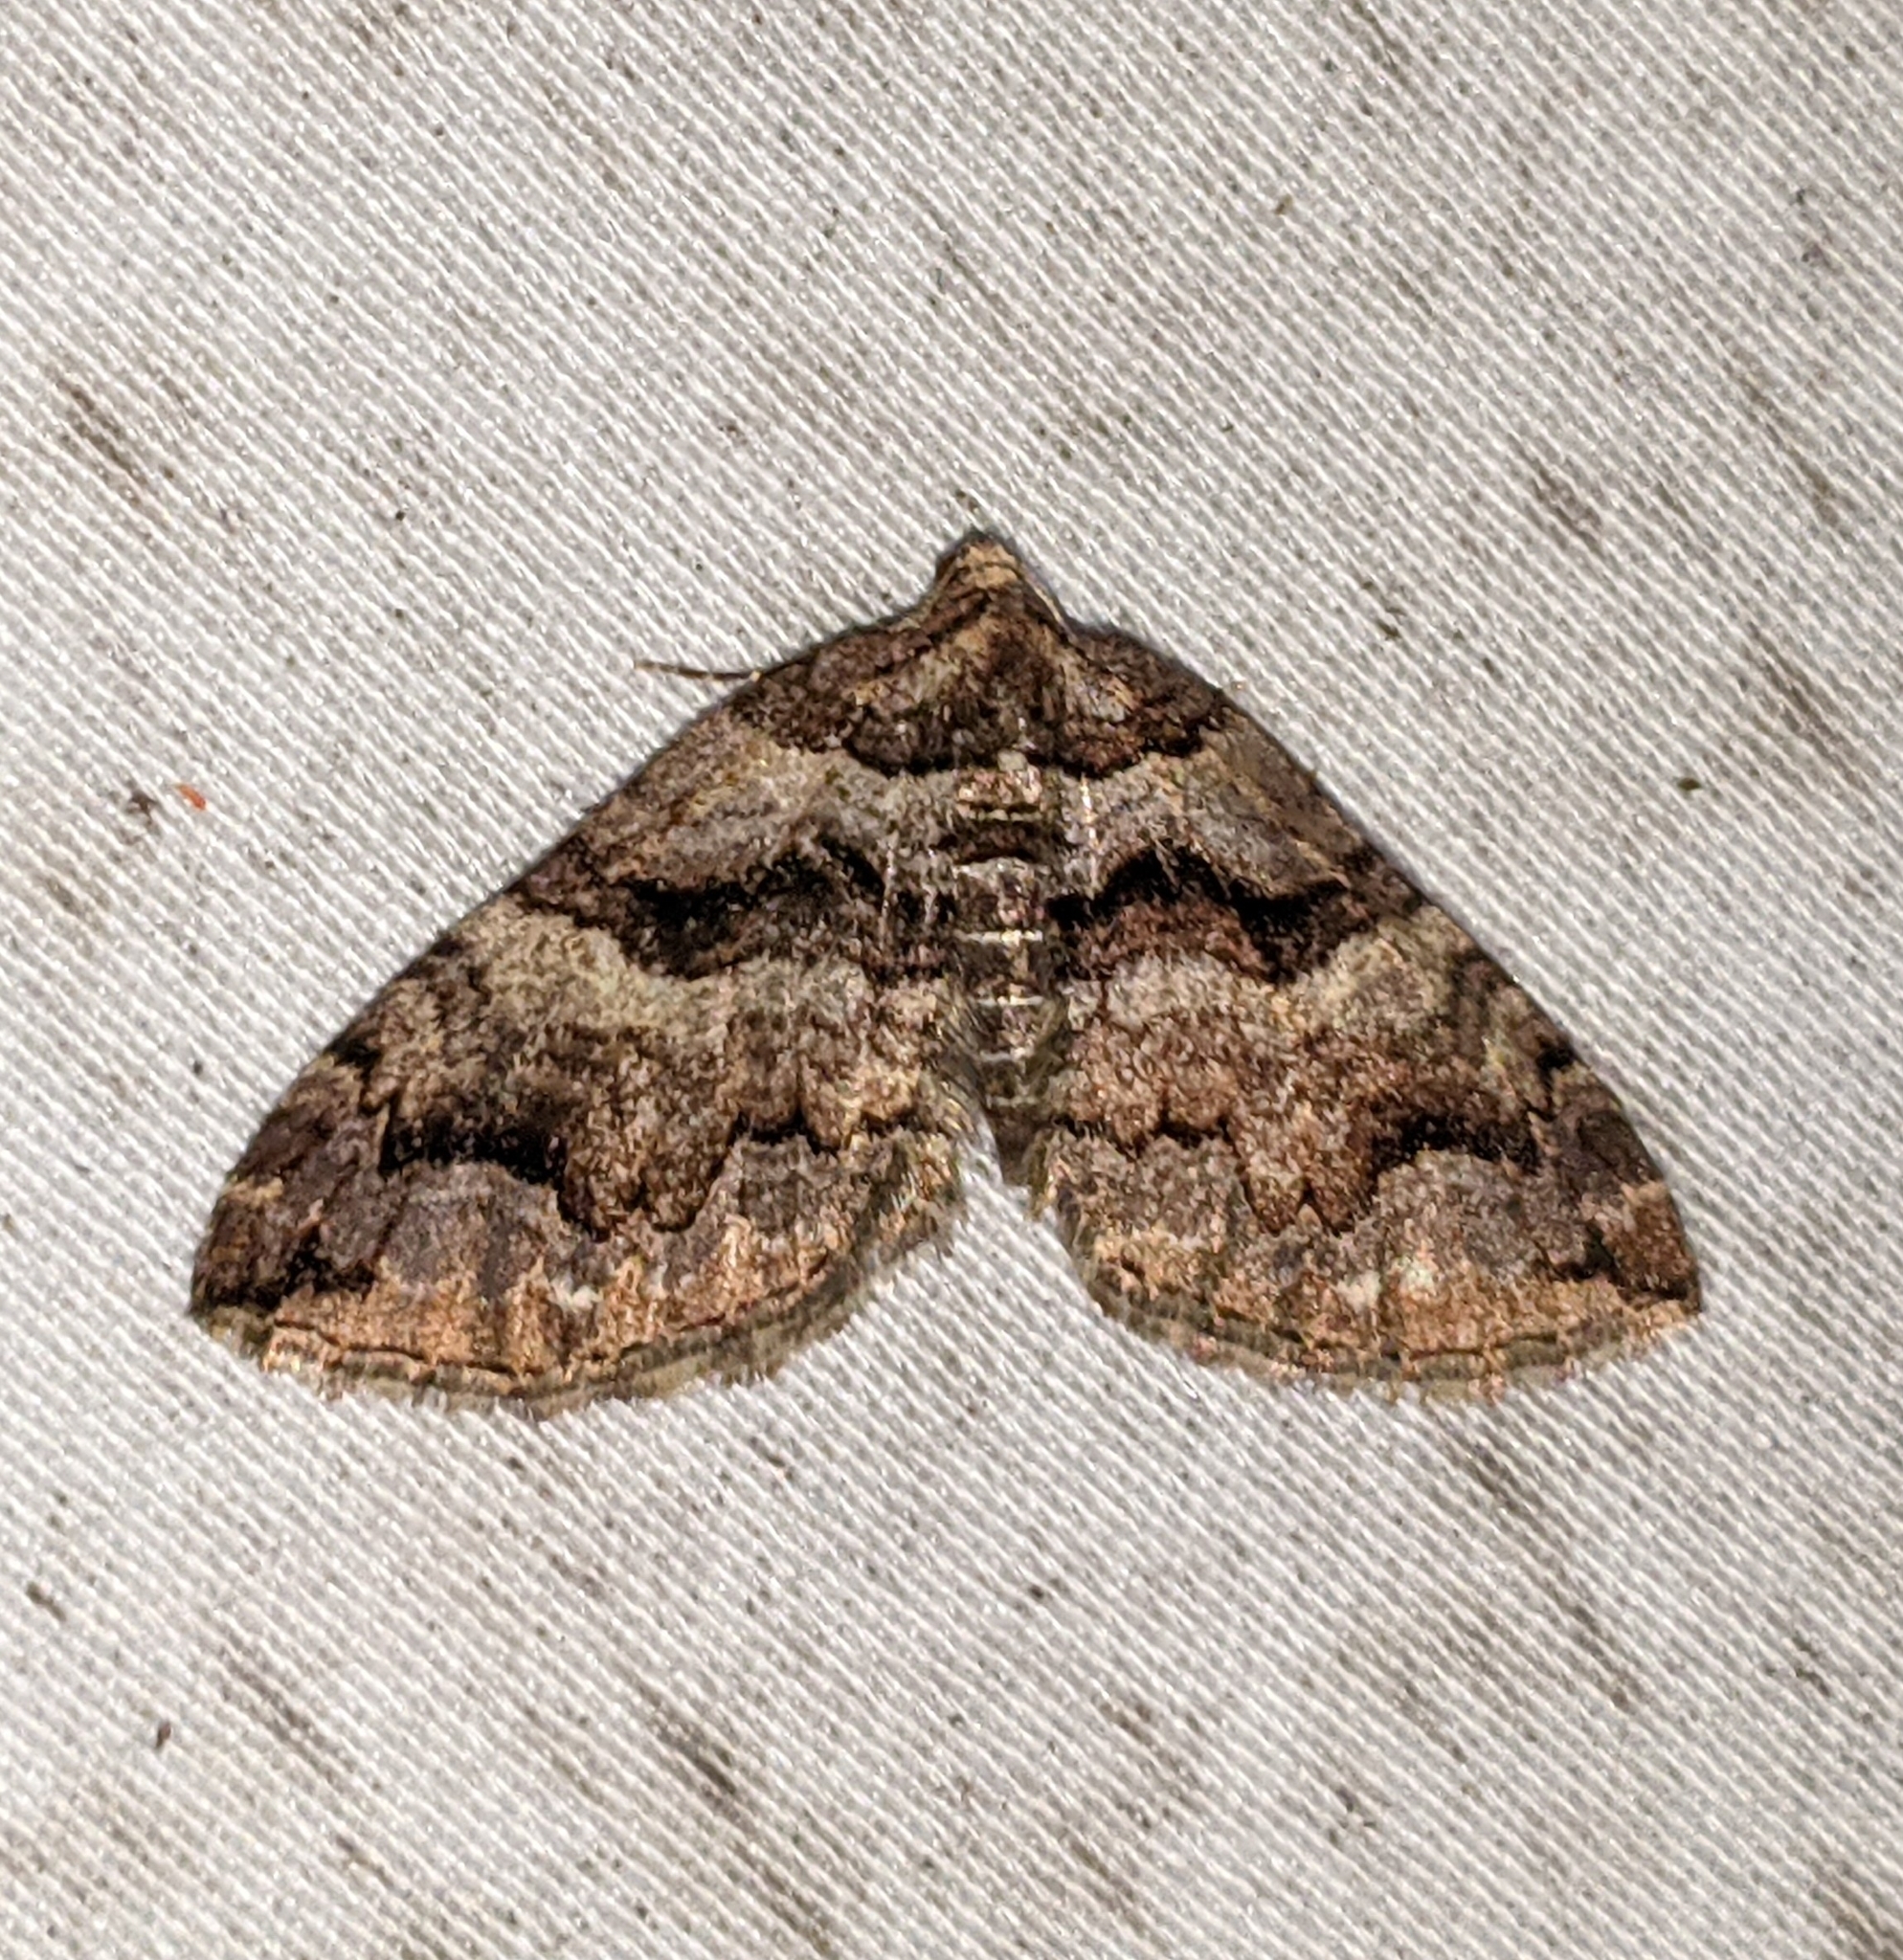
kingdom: Animalia
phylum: Arthropoda
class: Insecta
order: Lepidoptera
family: Geometridae
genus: Anticlea
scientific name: Anticlea vasiliata
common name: Variable carpet
